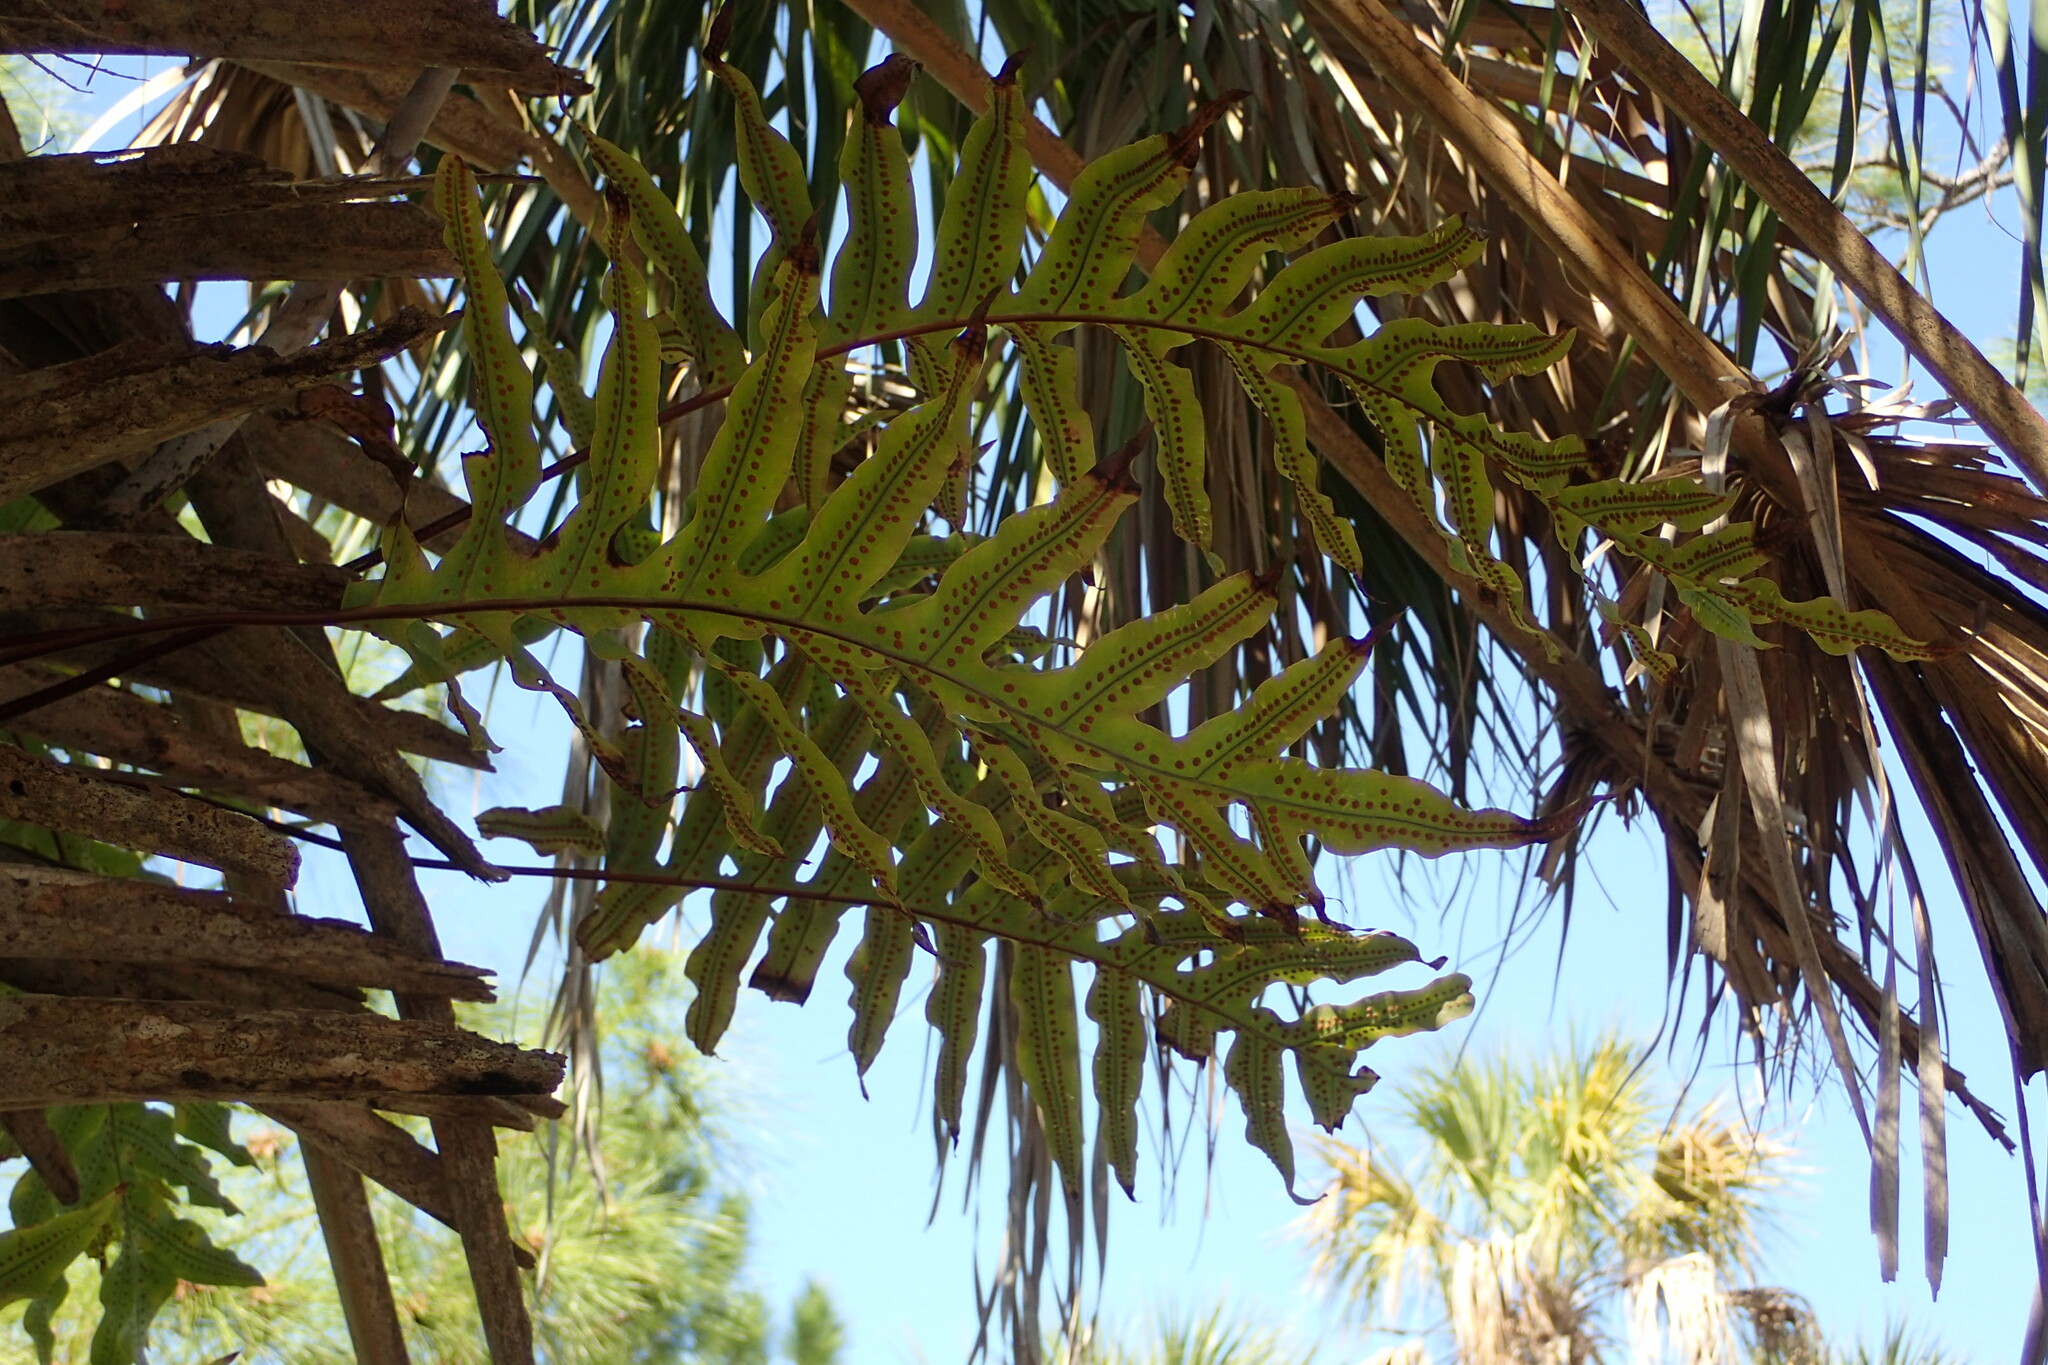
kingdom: Plantae
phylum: Tracheophyta
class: Polypodiopsida
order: Polypodiales
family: Polypodiaceae
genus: Phlebodium
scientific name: Phlebodium aureum
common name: Gold-foot fern
